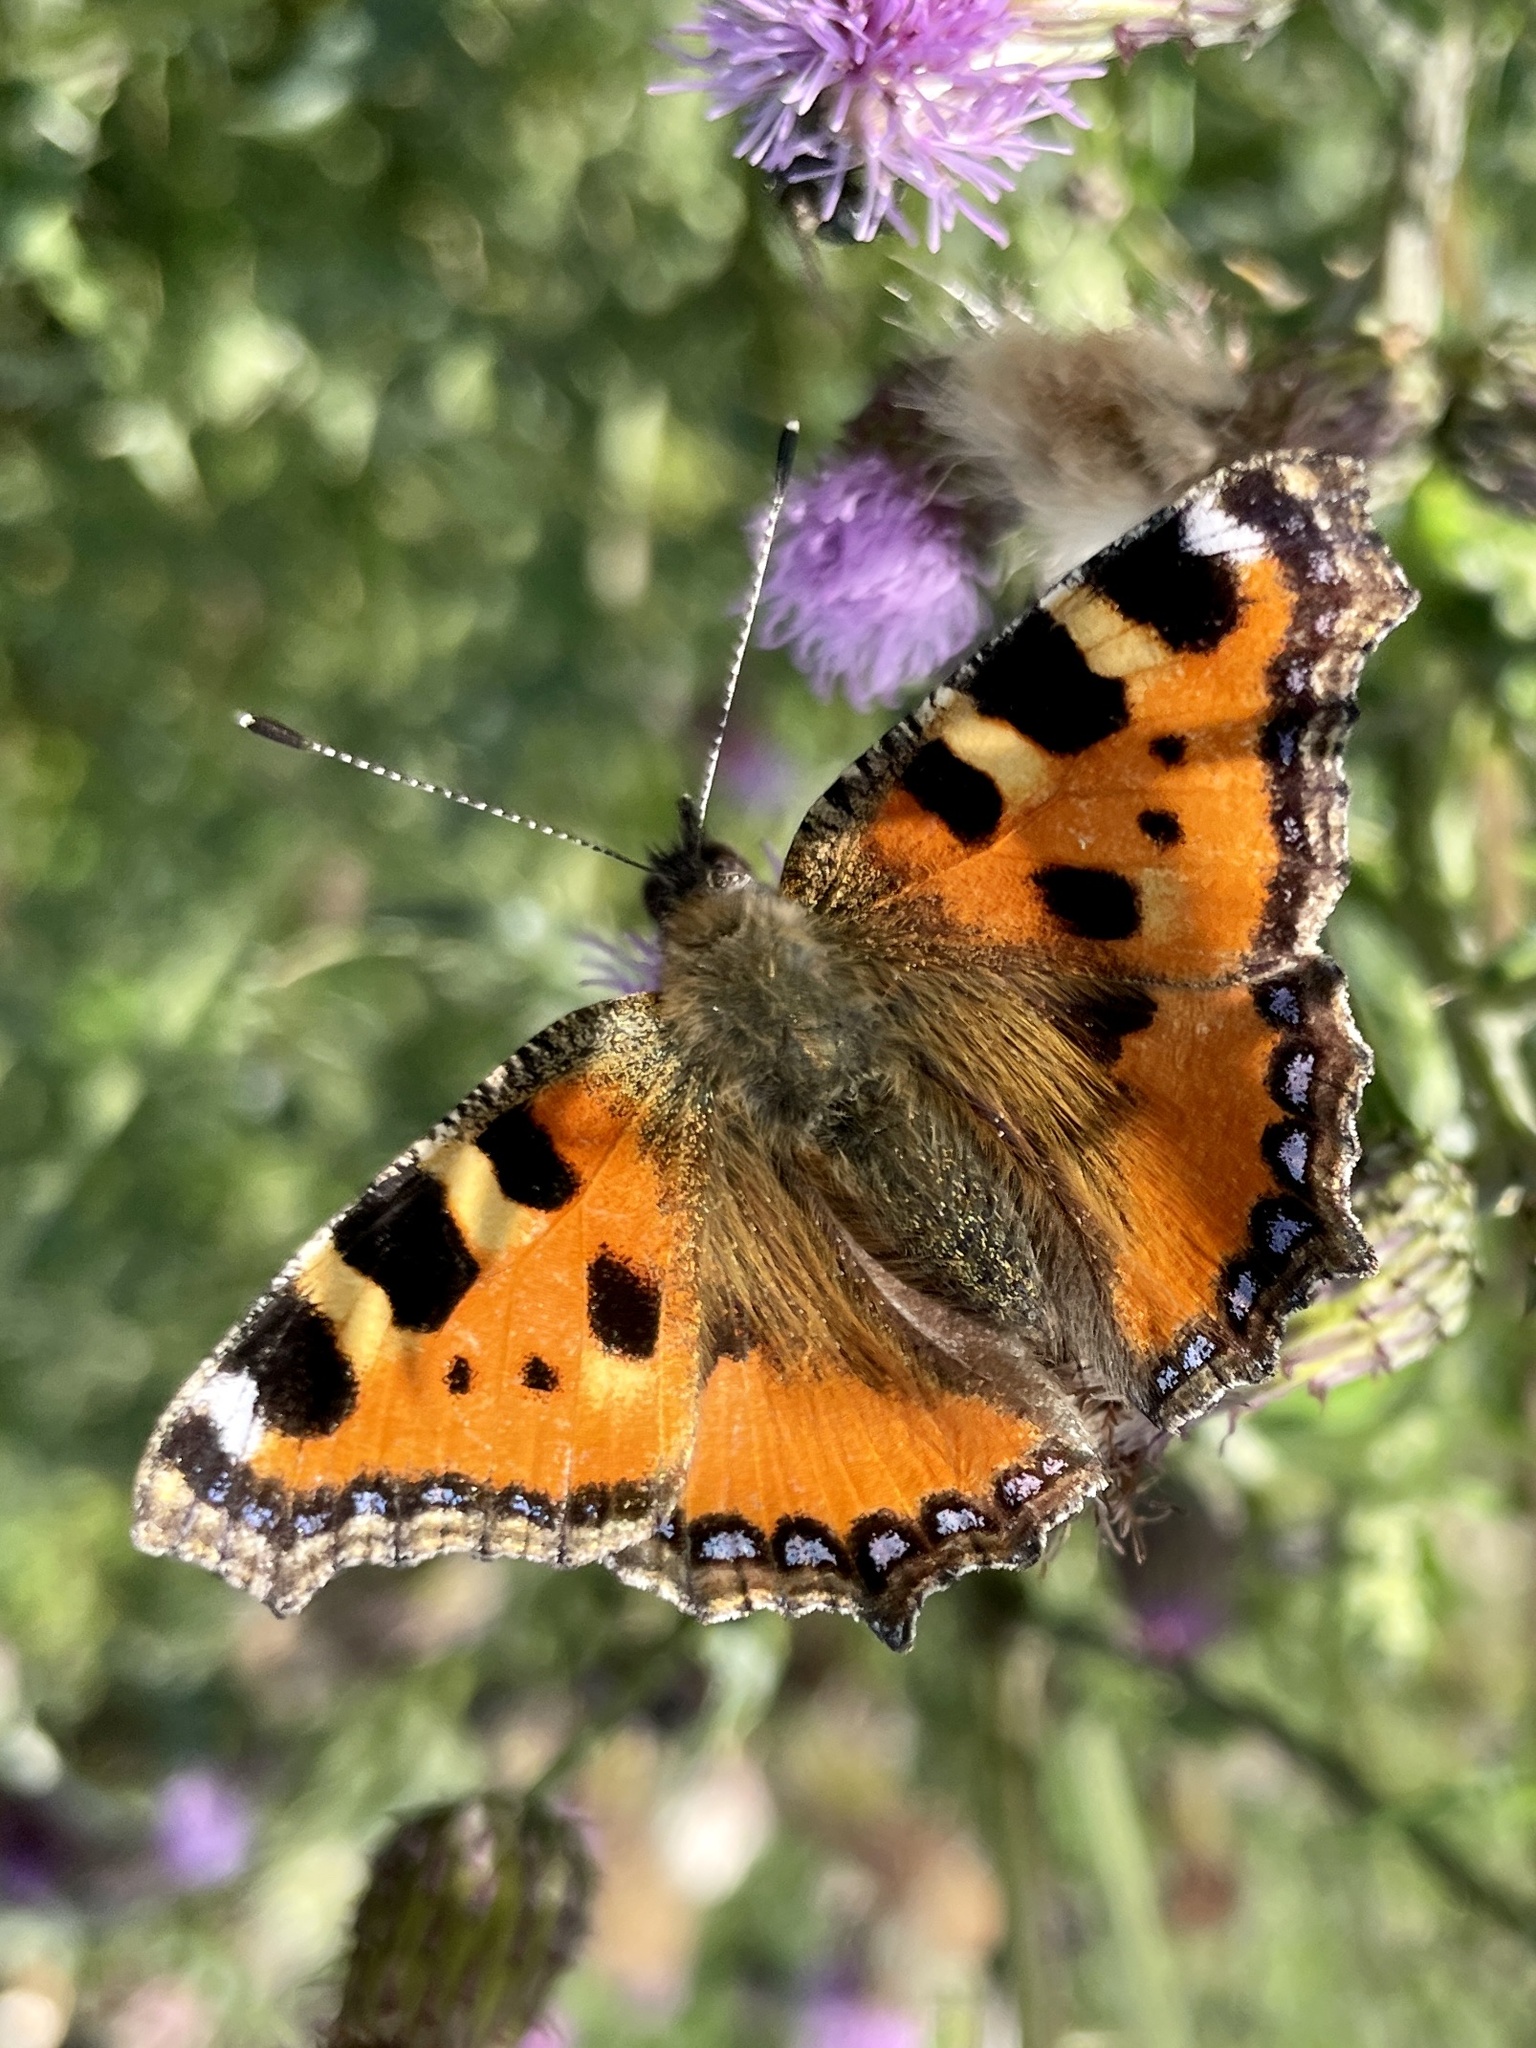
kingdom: Animalia
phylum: Arthropoda
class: Insecta
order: Lepidoptera
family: Nymphalidae
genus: Aglais
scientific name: Aglais urticae
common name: Small tortoiseshell
